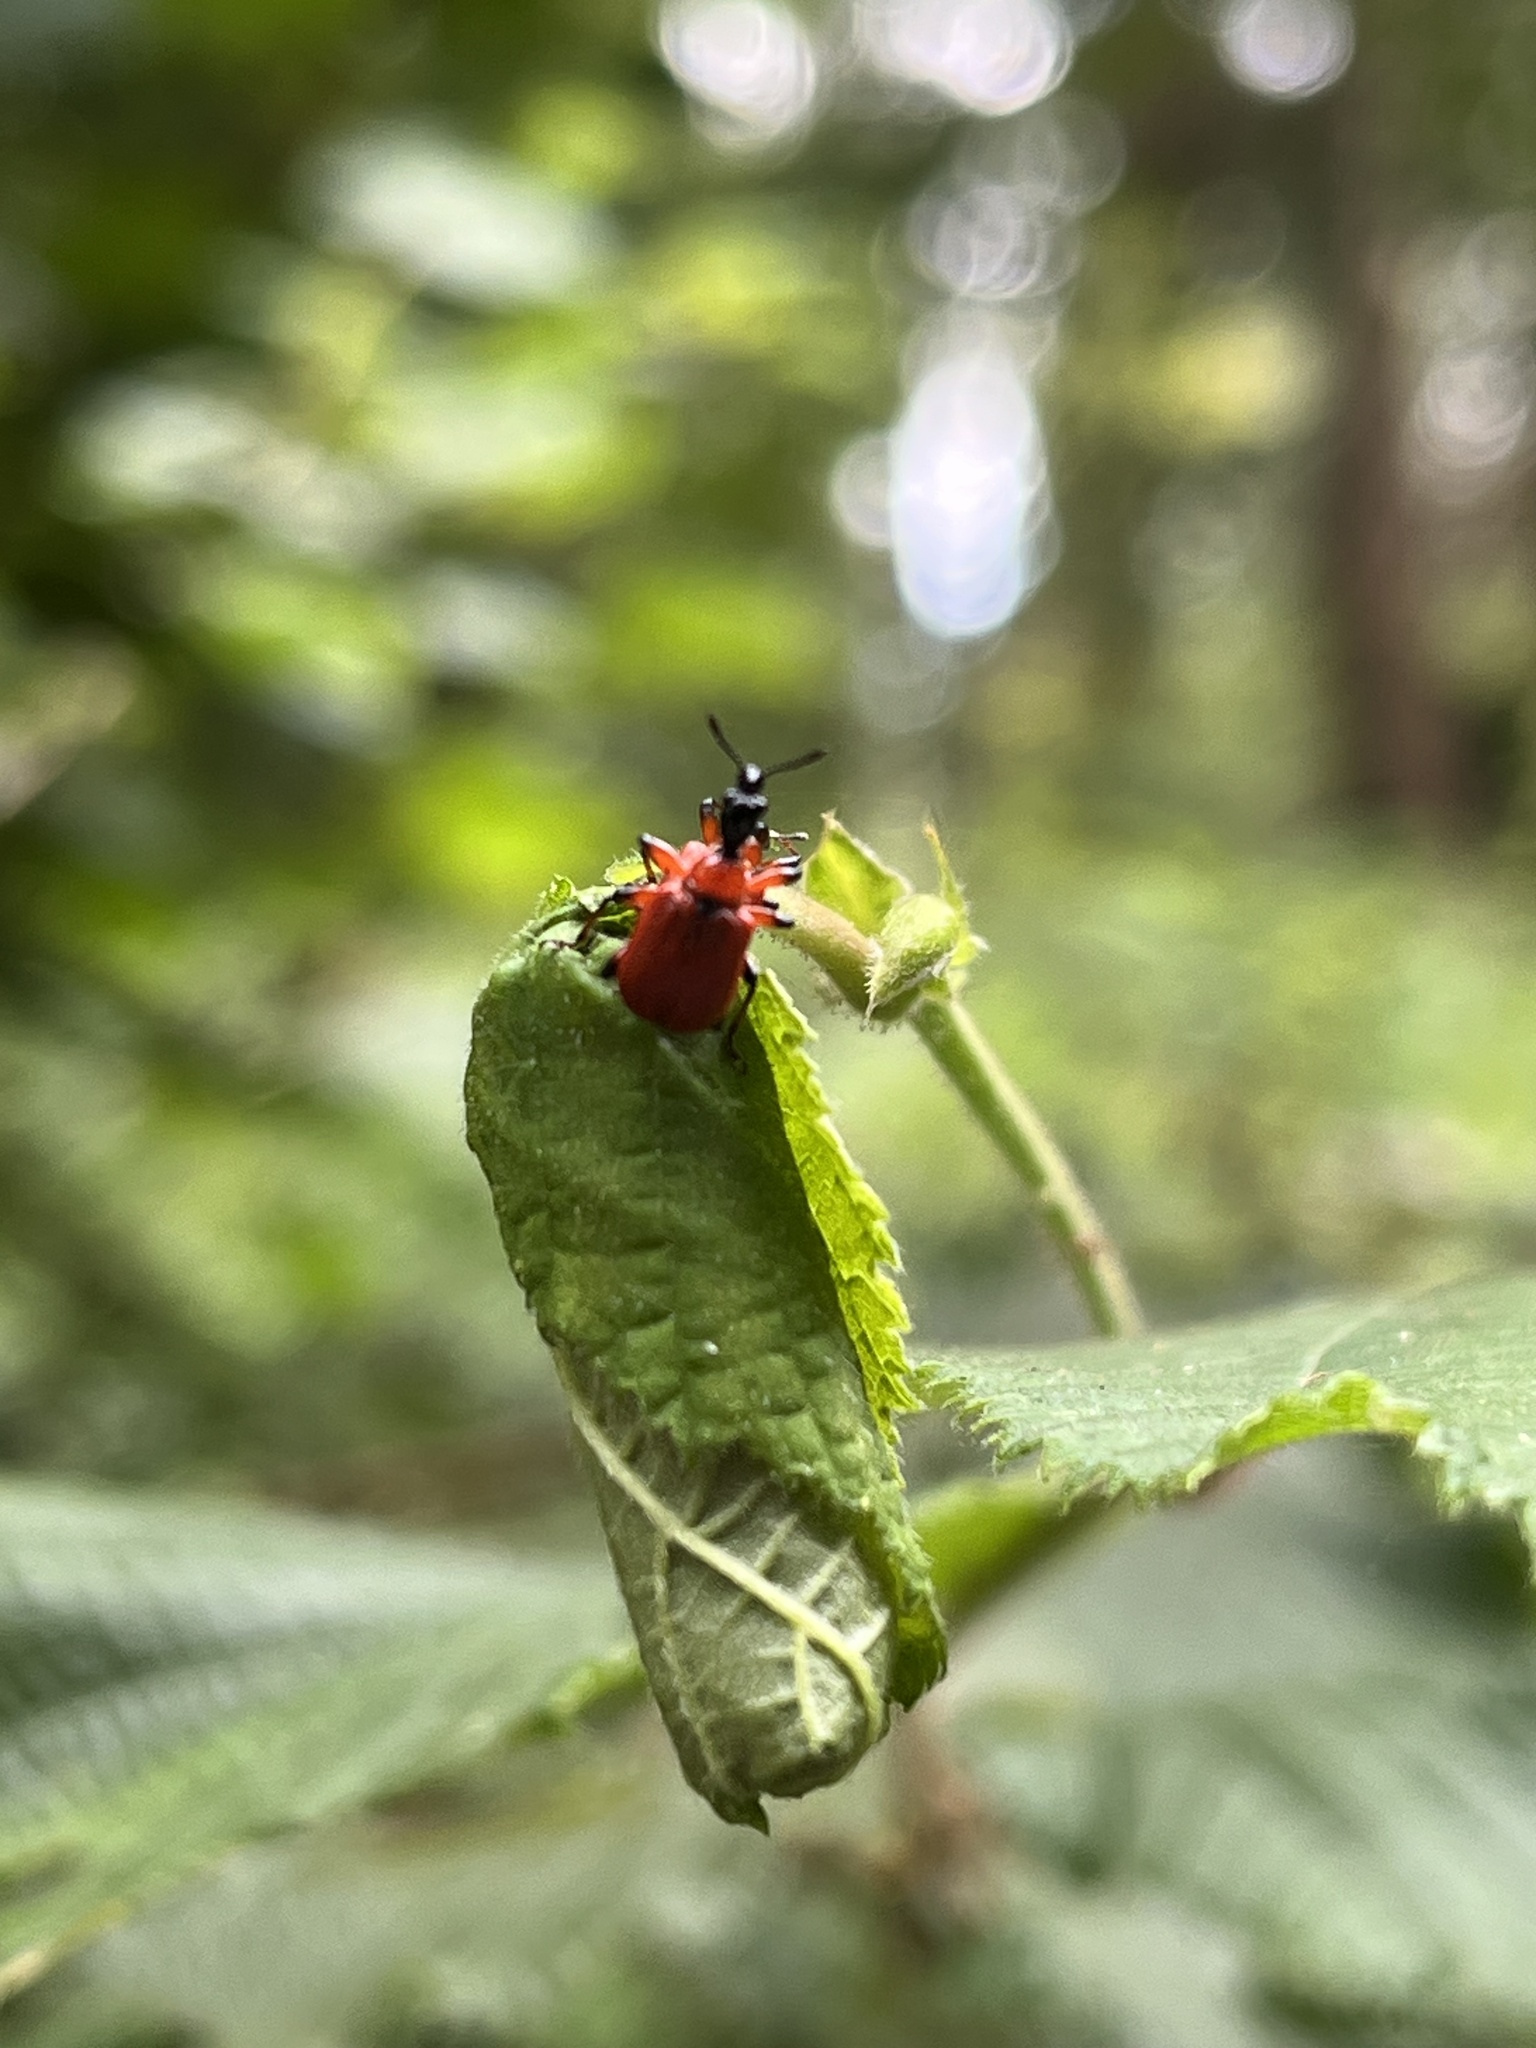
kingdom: Animalia
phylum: Arthropoda
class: Insecta
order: Coleoptera
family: Attelabidae
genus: Apoderus
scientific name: Apoderus coryli
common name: Hazel leaf roller
